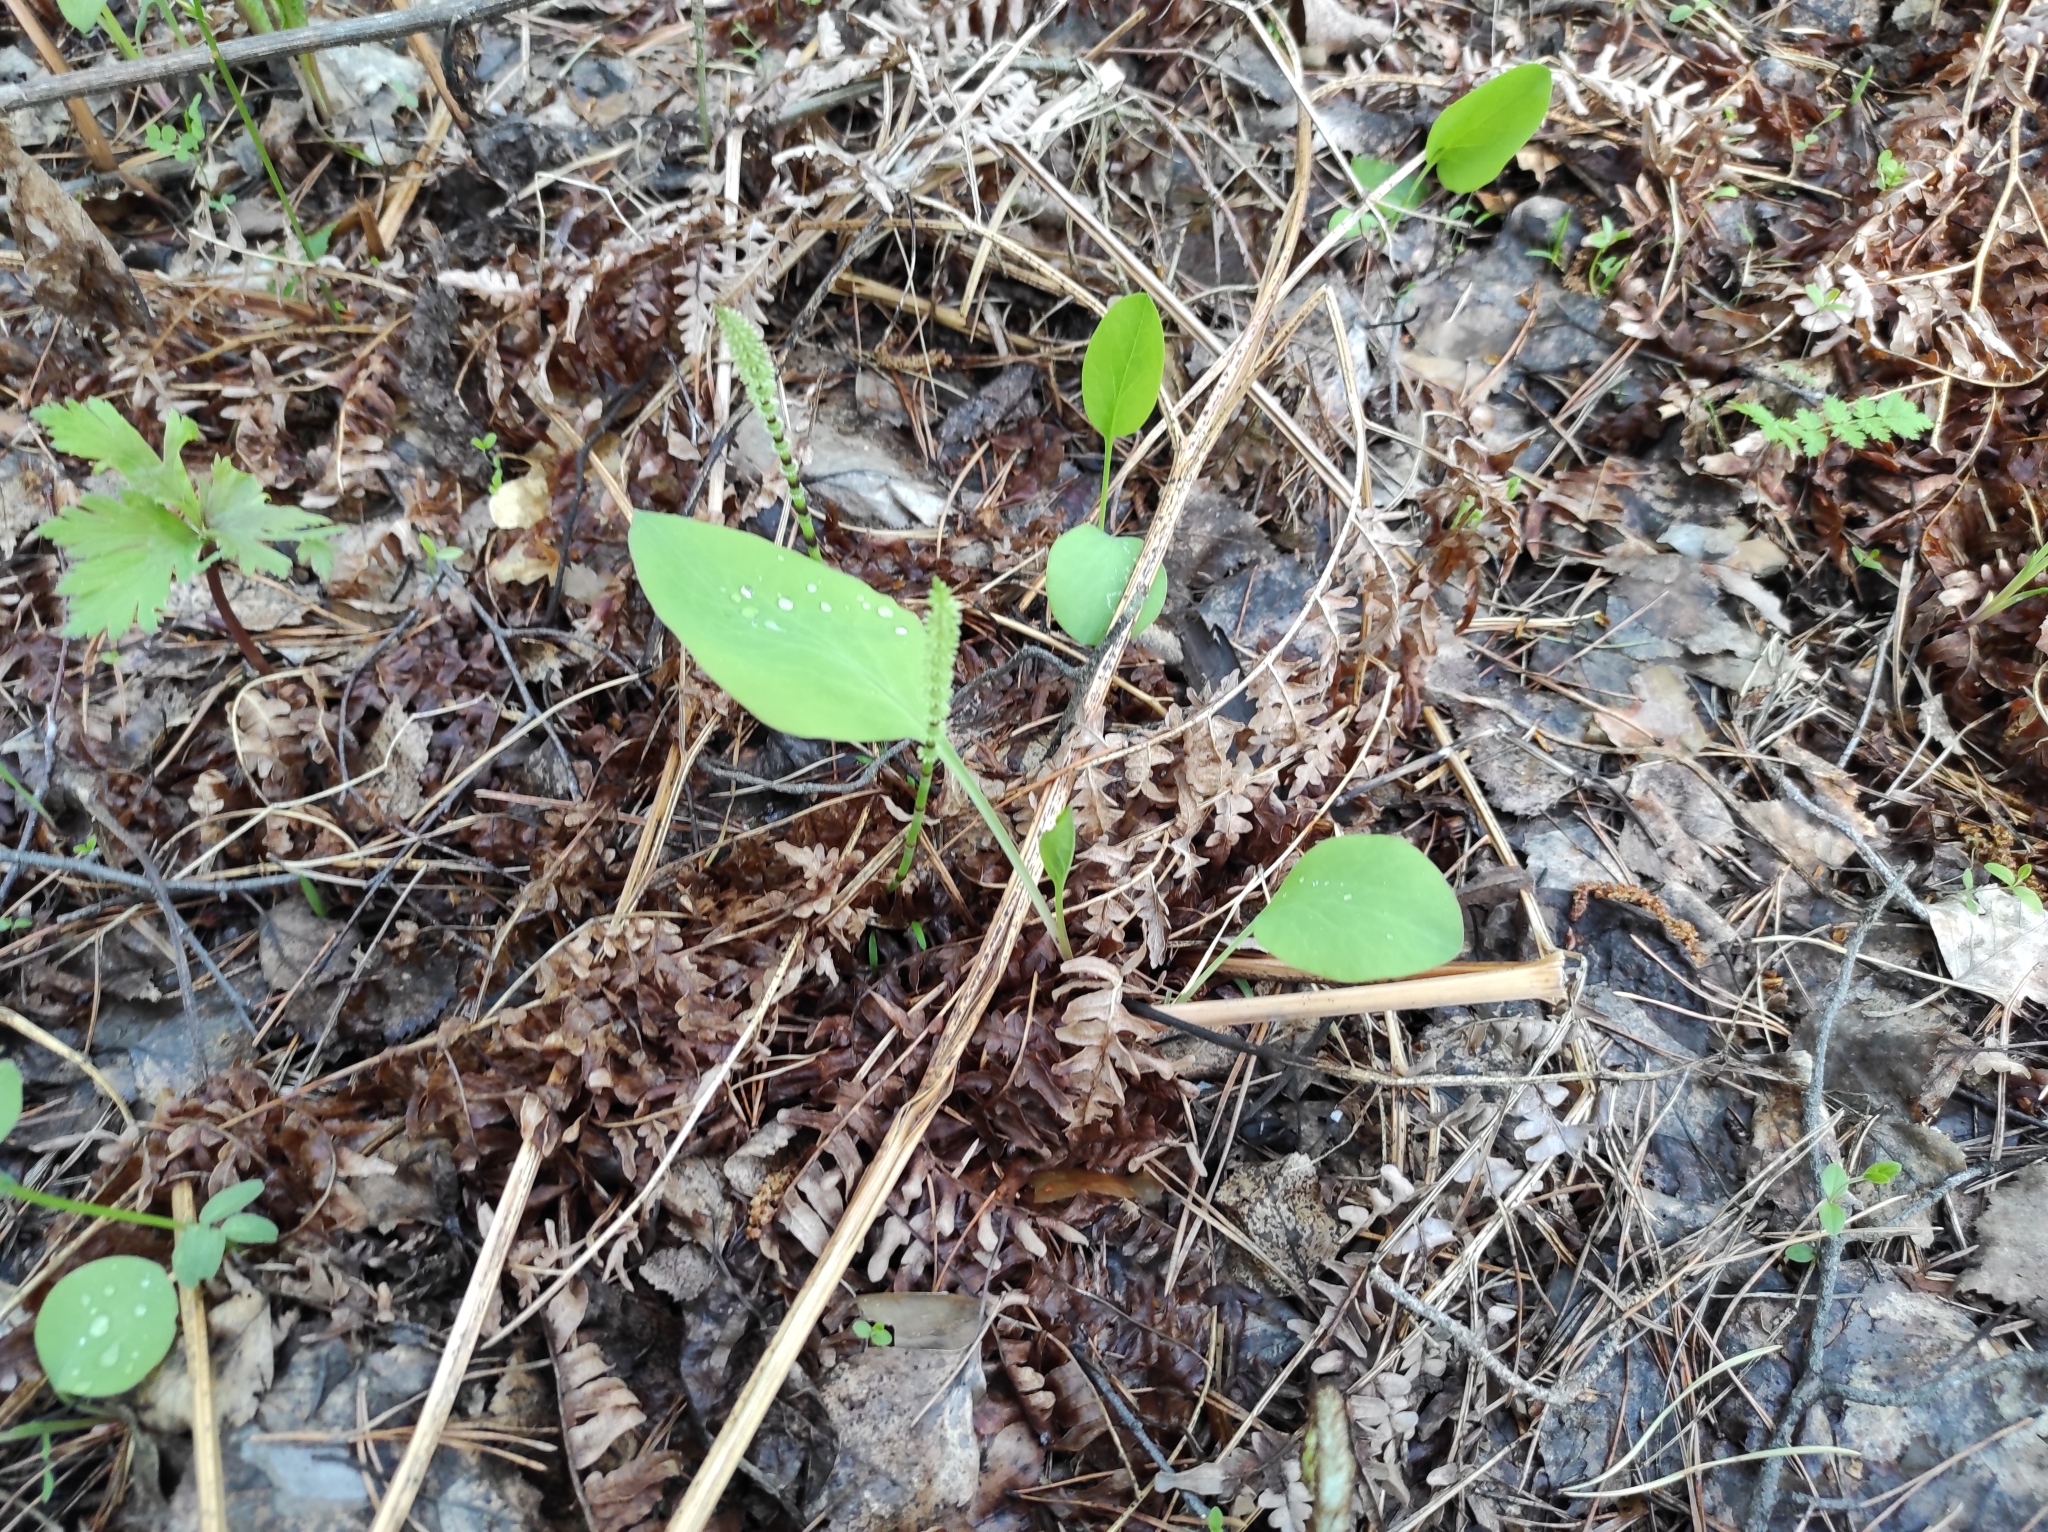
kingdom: Plantae
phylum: Tracheophyta
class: Magnoliopsida
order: Apiales
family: Apiaceae
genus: Bupleurum
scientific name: Bupleurum aureum
